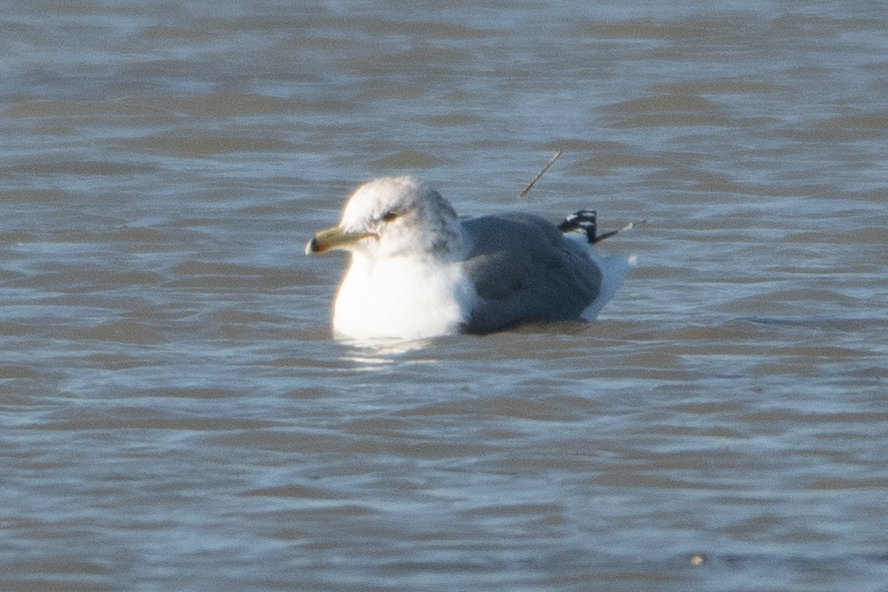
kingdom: Animalia
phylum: Chordata
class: Aves
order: Charadriiformes
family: Laridae
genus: Larus
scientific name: Larus californicus
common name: California gull
